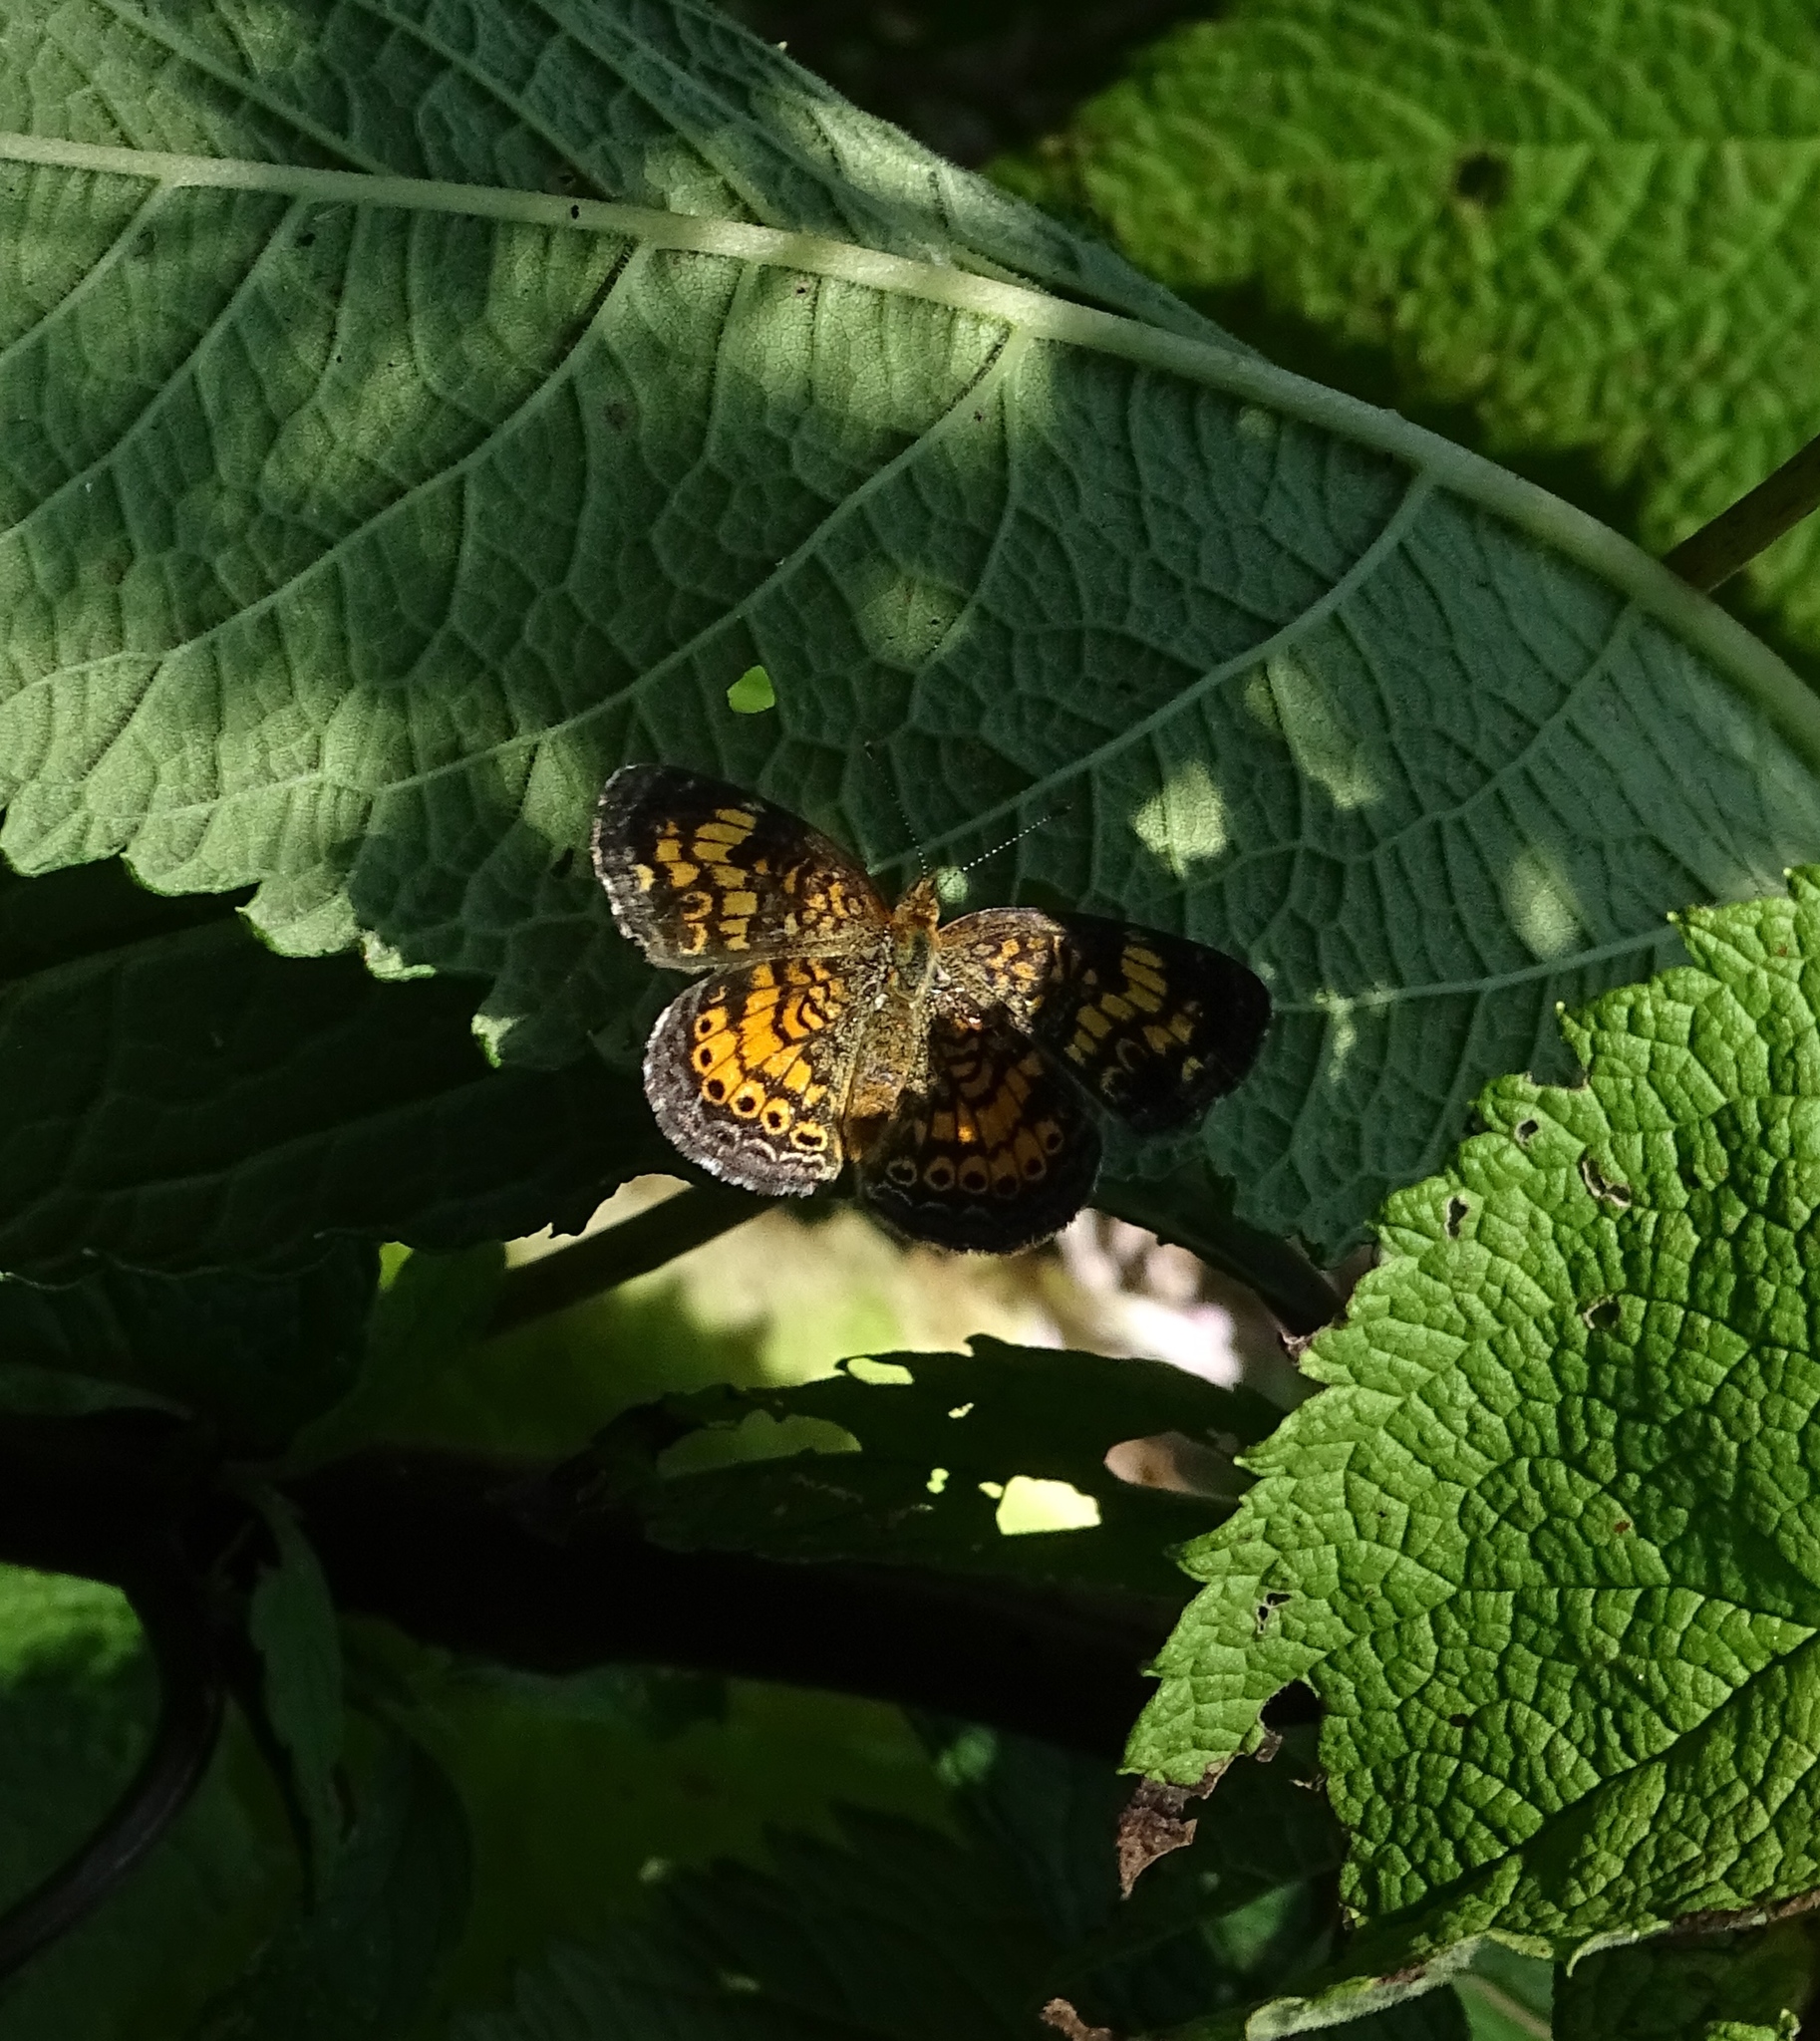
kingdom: Animalia
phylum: Arthropoda
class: Insecta
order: Lepidoptera
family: Nymphalidae
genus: Phyciodes
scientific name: Phyciodes tharos
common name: Pearl crescent
